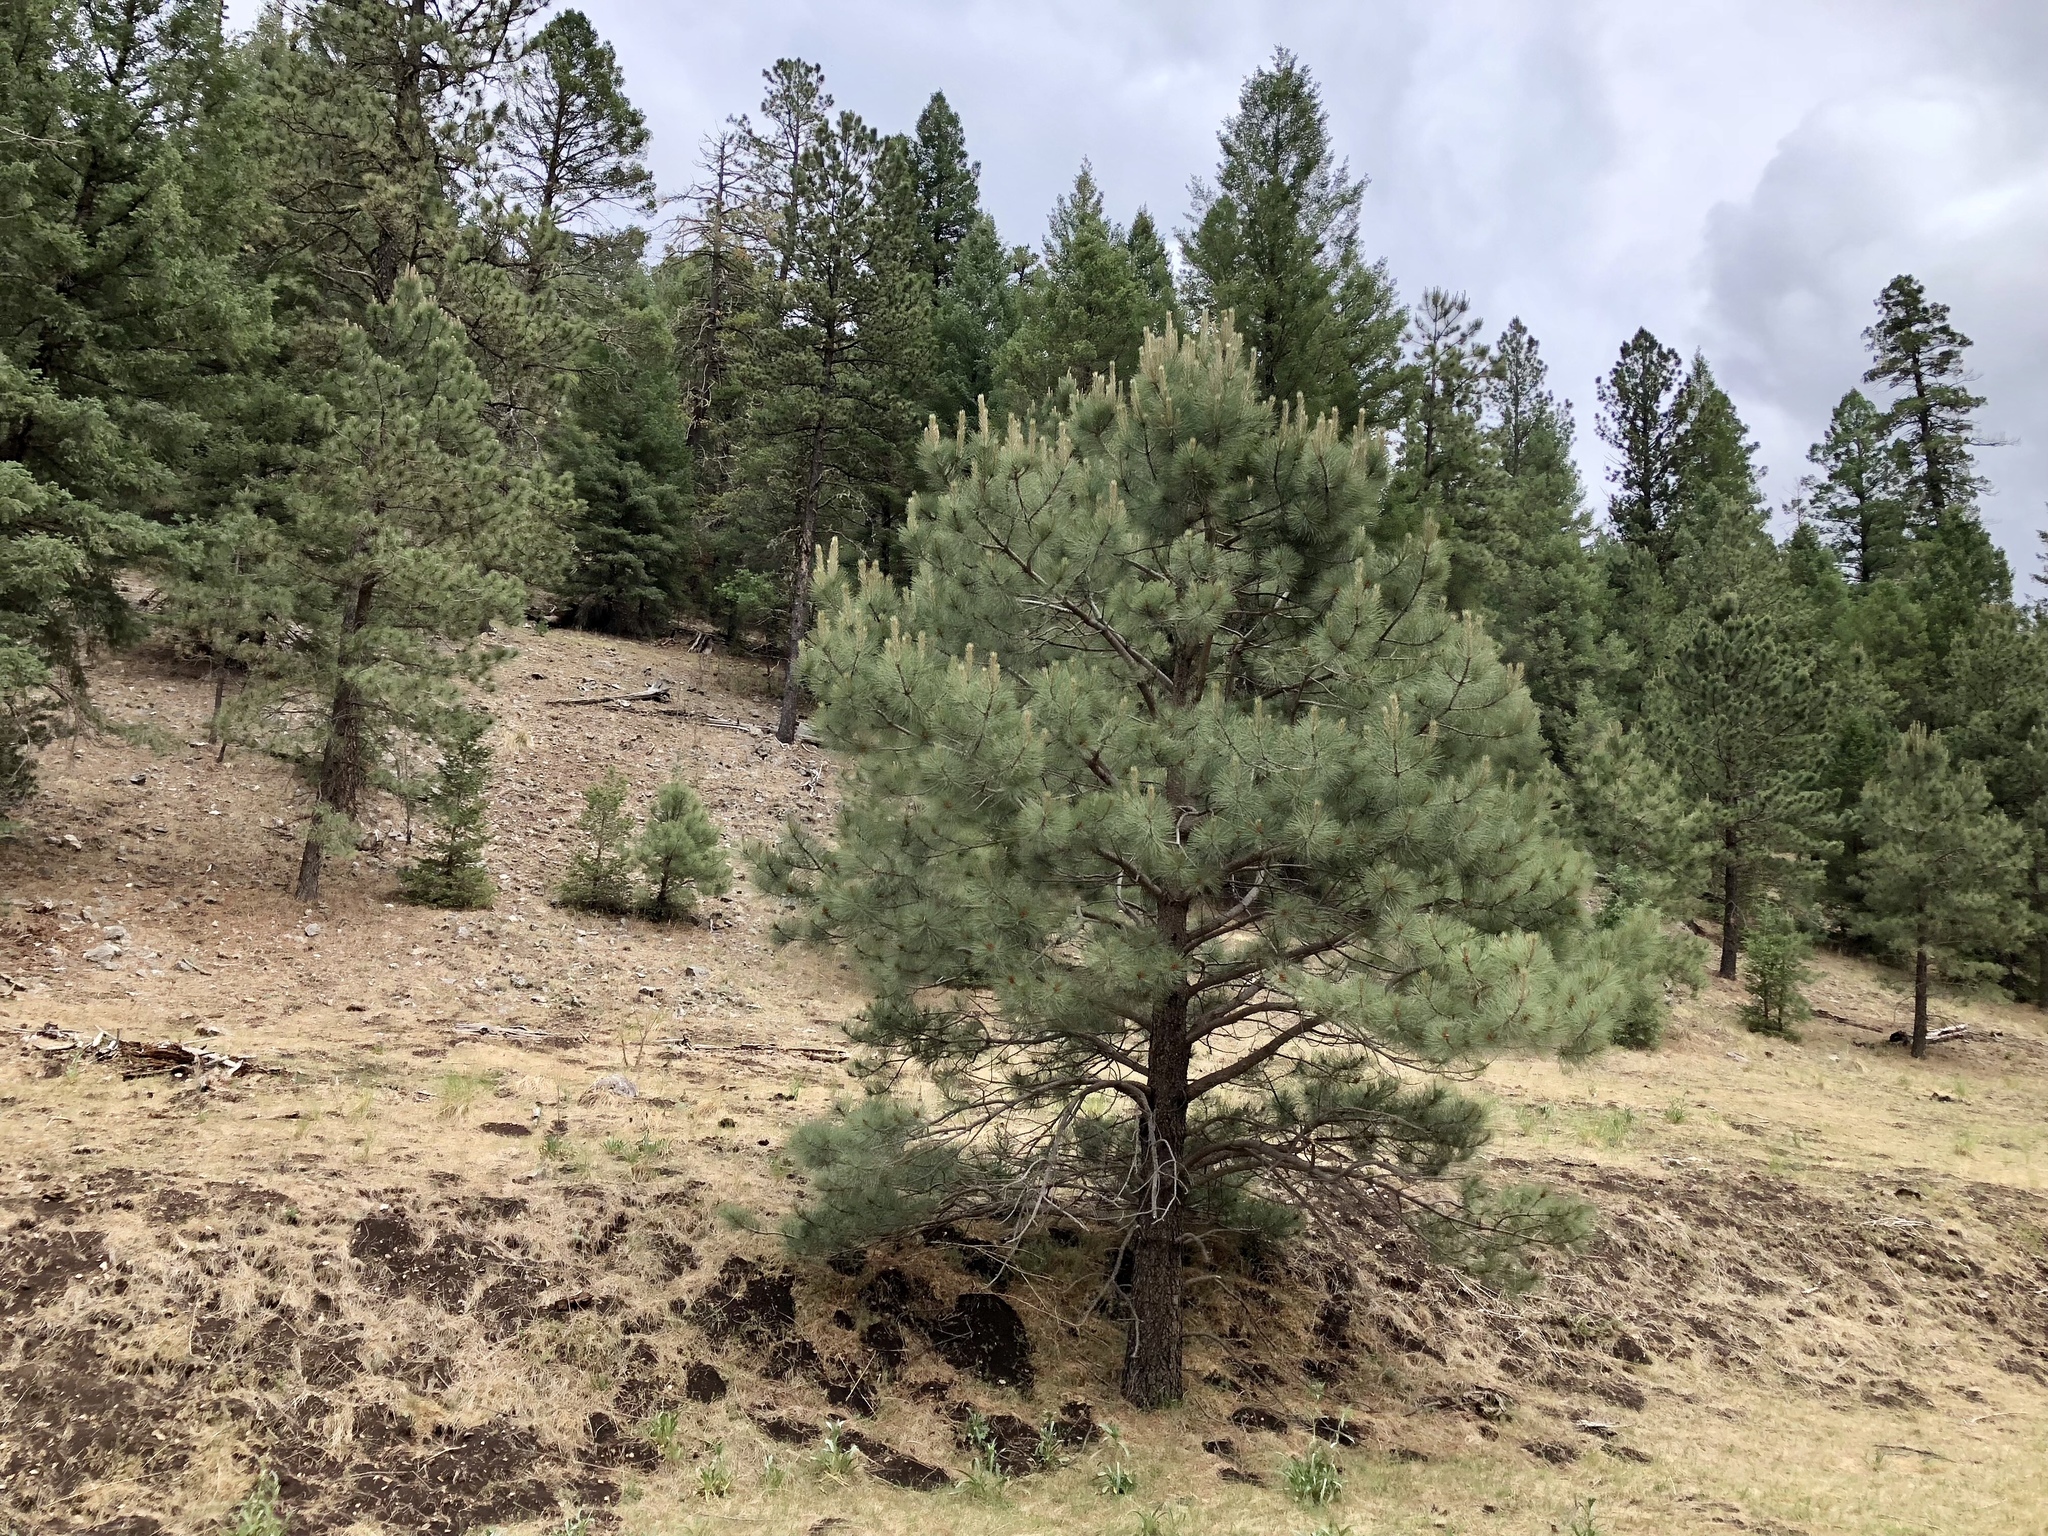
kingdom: Plantae
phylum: Tracheophyta
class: Pinopsida
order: Pinales
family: Pinaceae
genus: Pinus
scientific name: Pinus ponderosa
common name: Western yellow-pine
